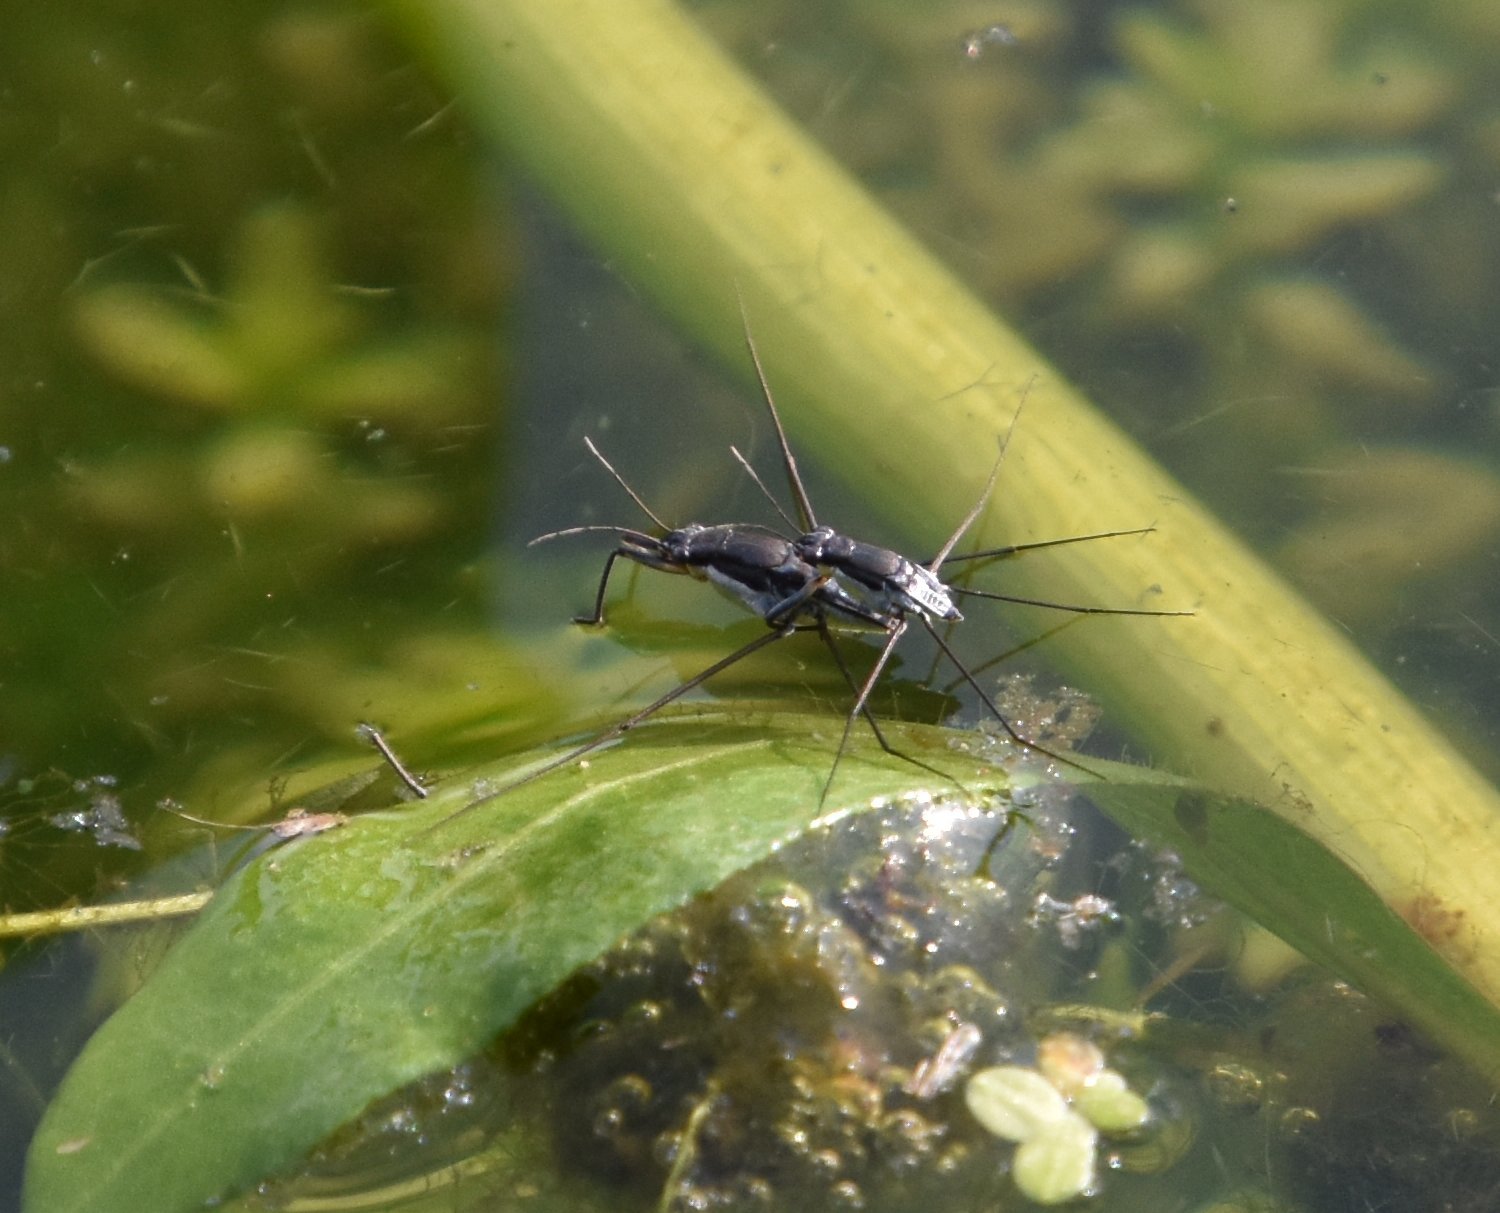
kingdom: Animalia
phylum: Arthropoda
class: Insecta
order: Hemiptera
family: Gerridae
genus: Neogerris
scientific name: Neogerris hesione
